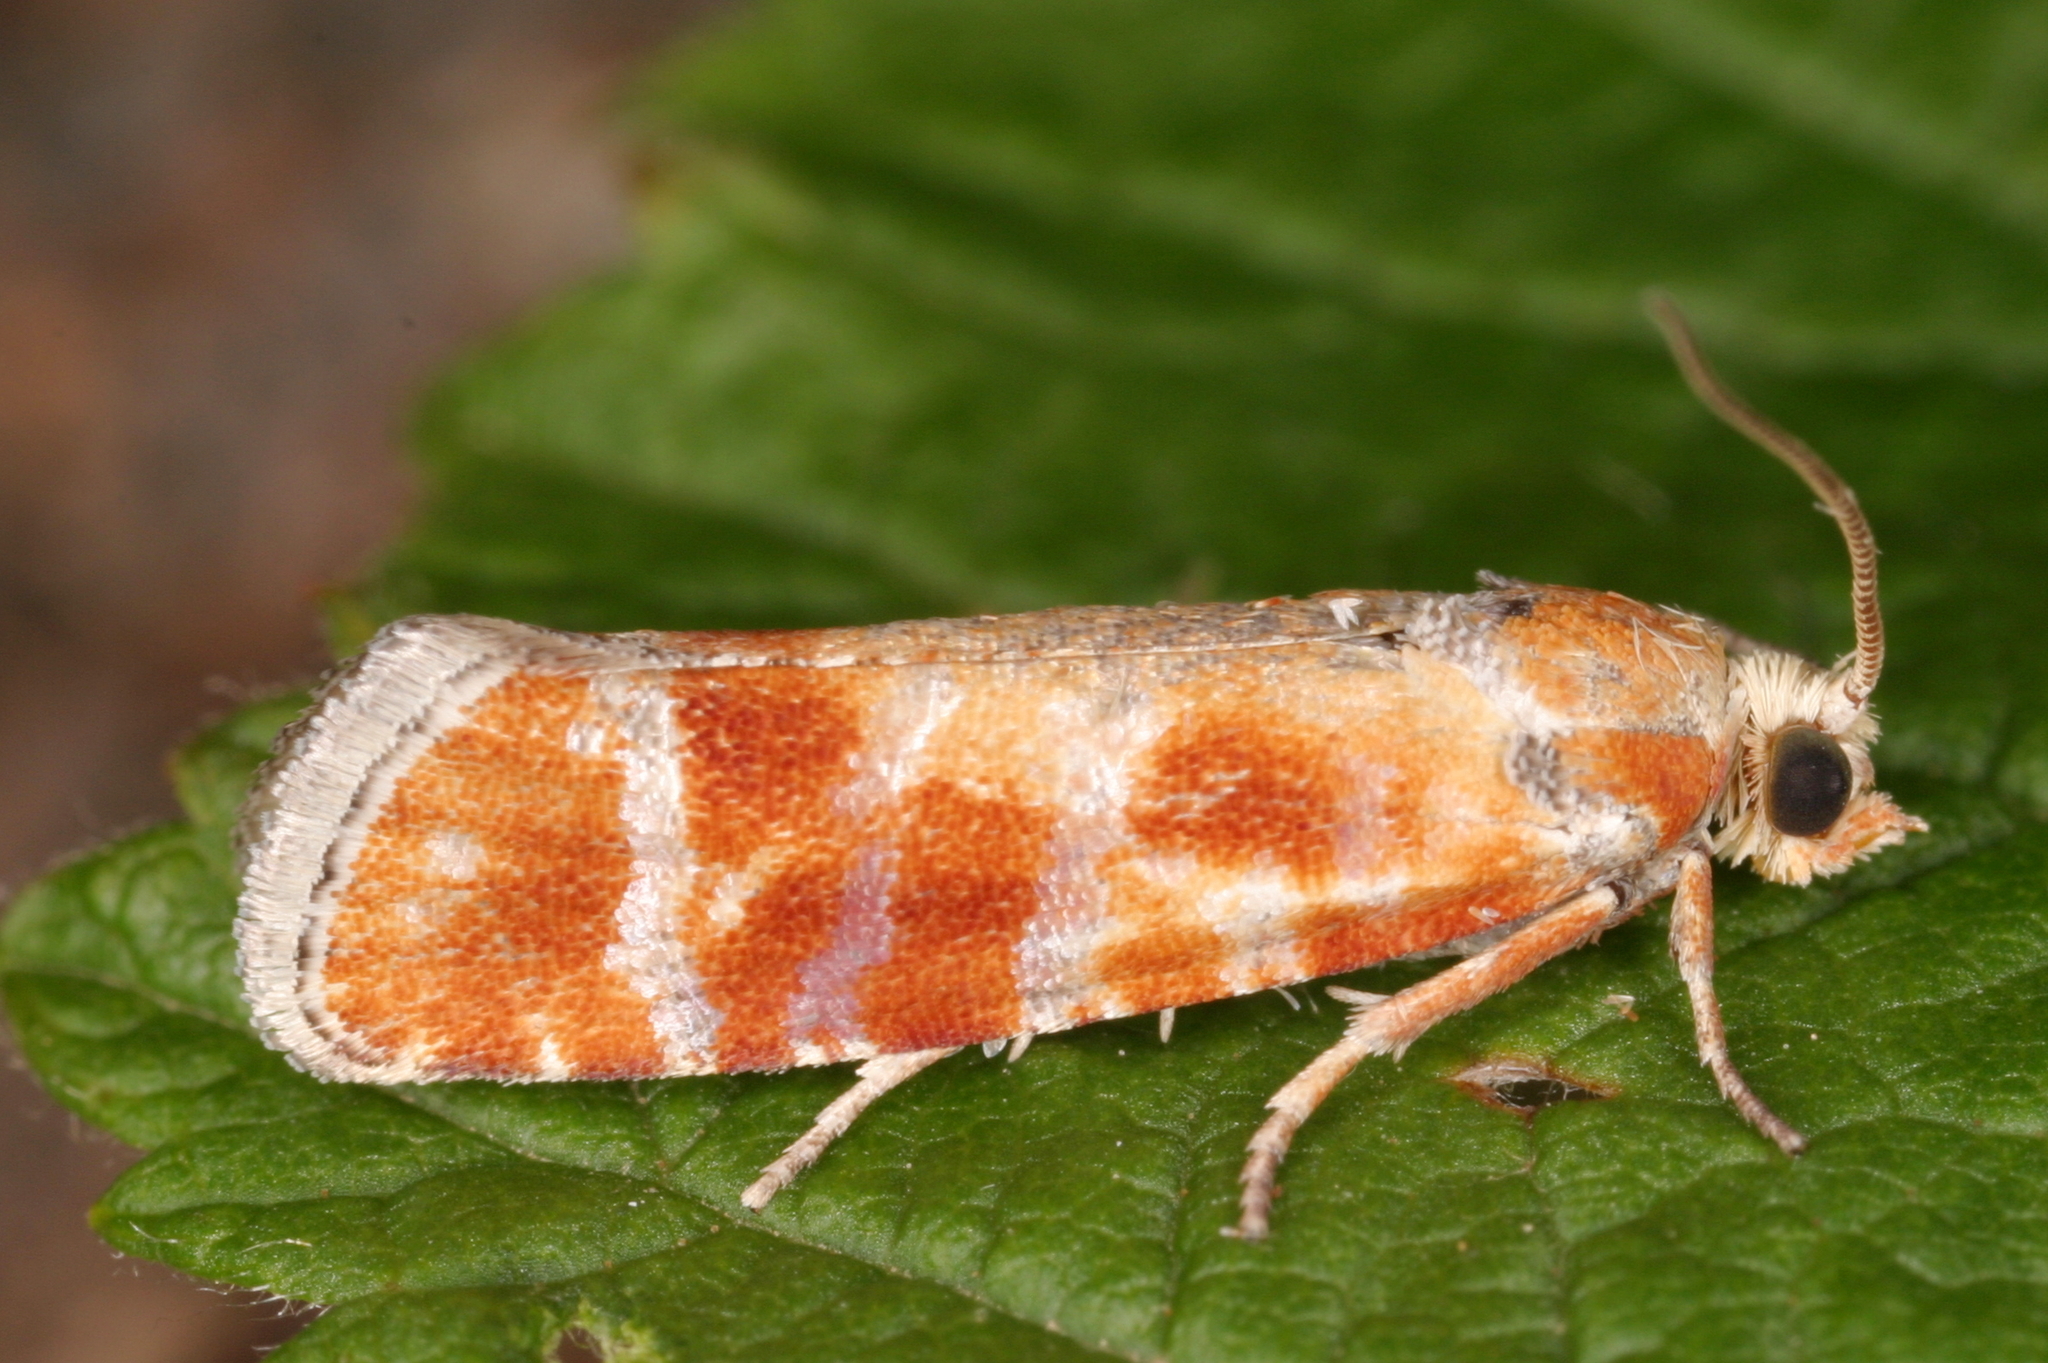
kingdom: Animalia
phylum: Arthropoda
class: Insecta
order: Lepidoptera
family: Tortricidae
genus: Rhyacionia
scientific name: Rhyacionia buoliana
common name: European pine shoot moth
